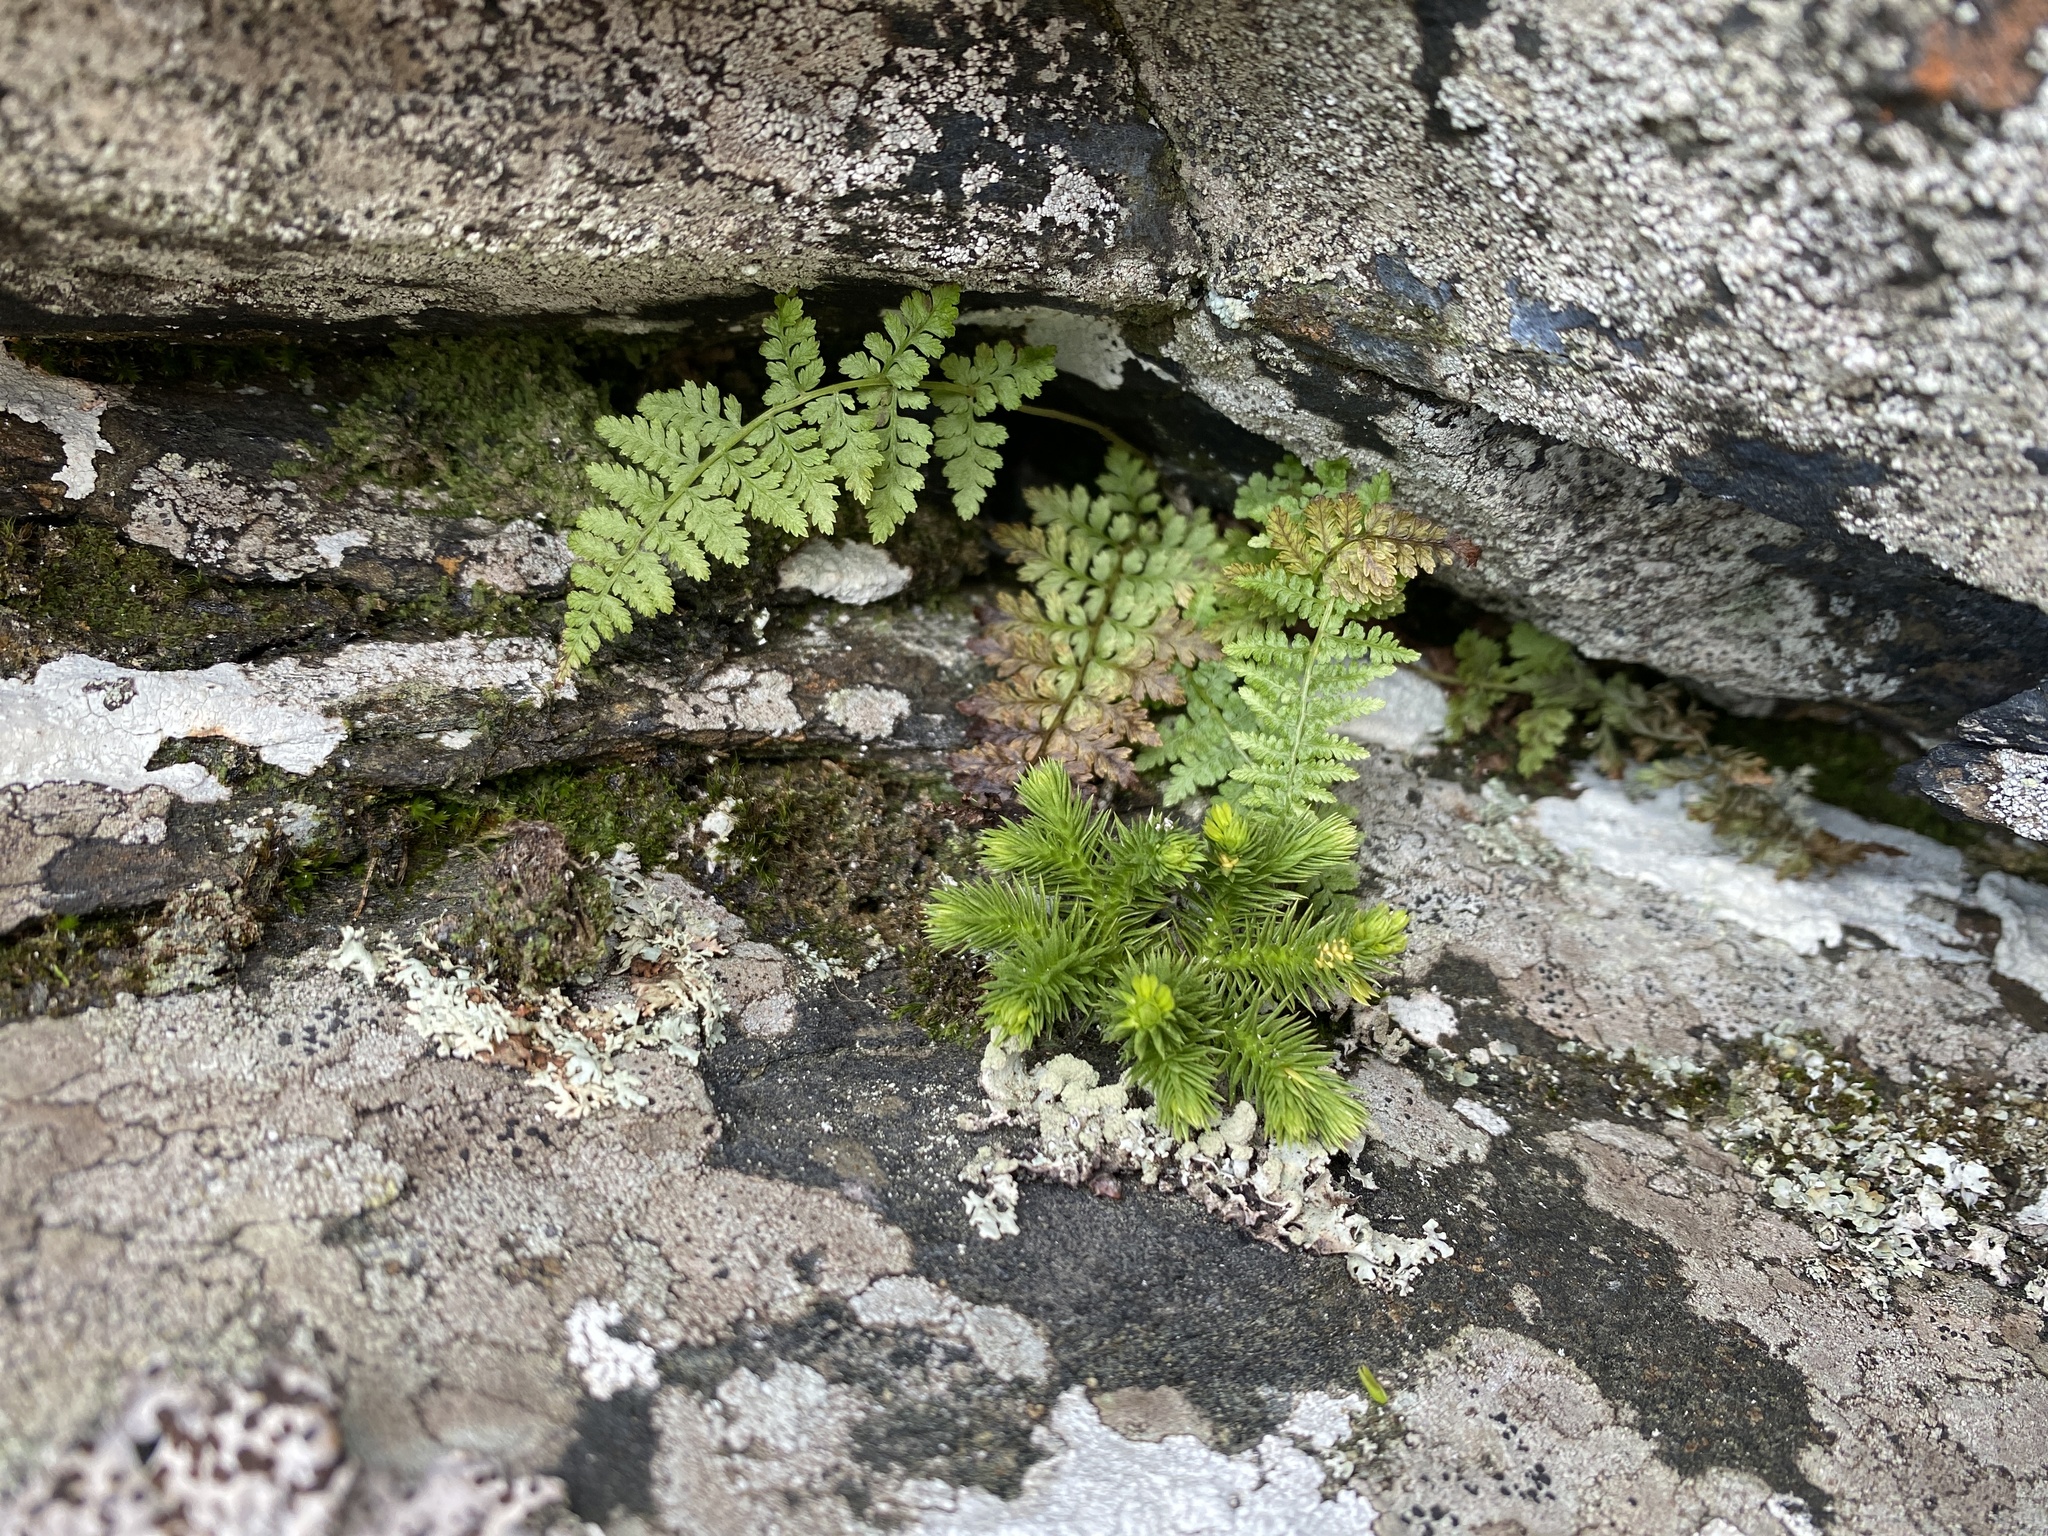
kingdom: Plantae
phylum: Tracheophyta
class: Lycopodiopsida
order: Lycopodiales
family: Lycopodiaceae
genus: Huperzia
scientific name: Huperzia selago
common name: Northern firmoss
